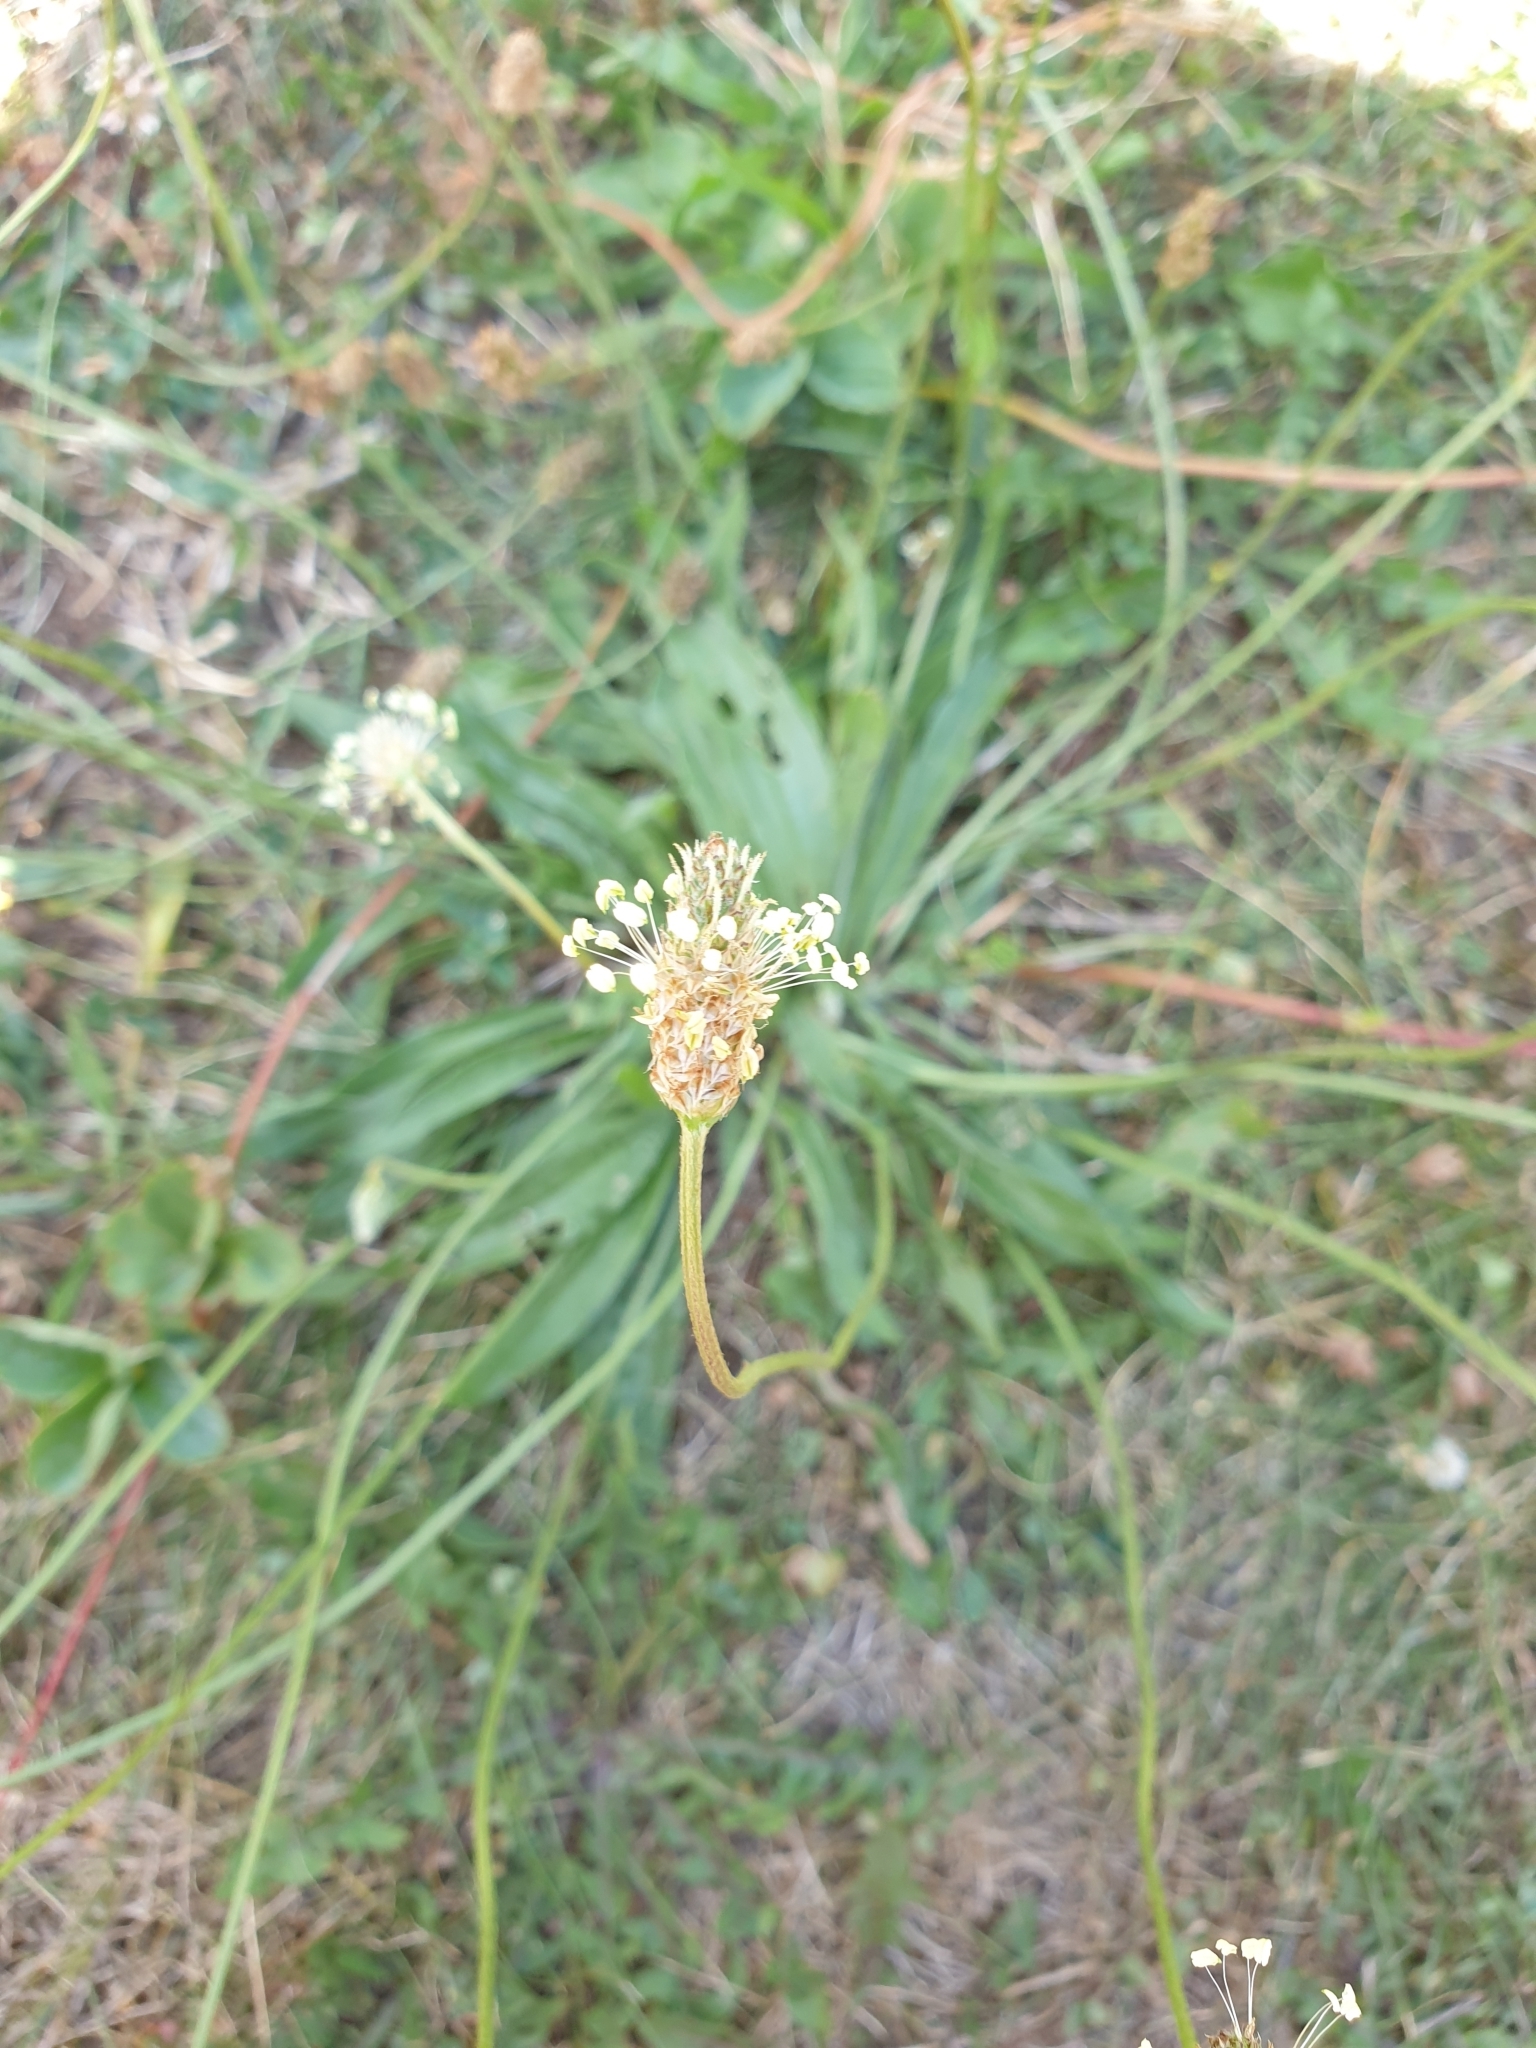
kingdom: Plantae
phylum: Tracheophyta
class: Magnoliopsida
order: Lamiales
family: Plantaginaceae
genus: Plantago
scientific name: Plantago lanceolata
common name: Ribwort plantain
